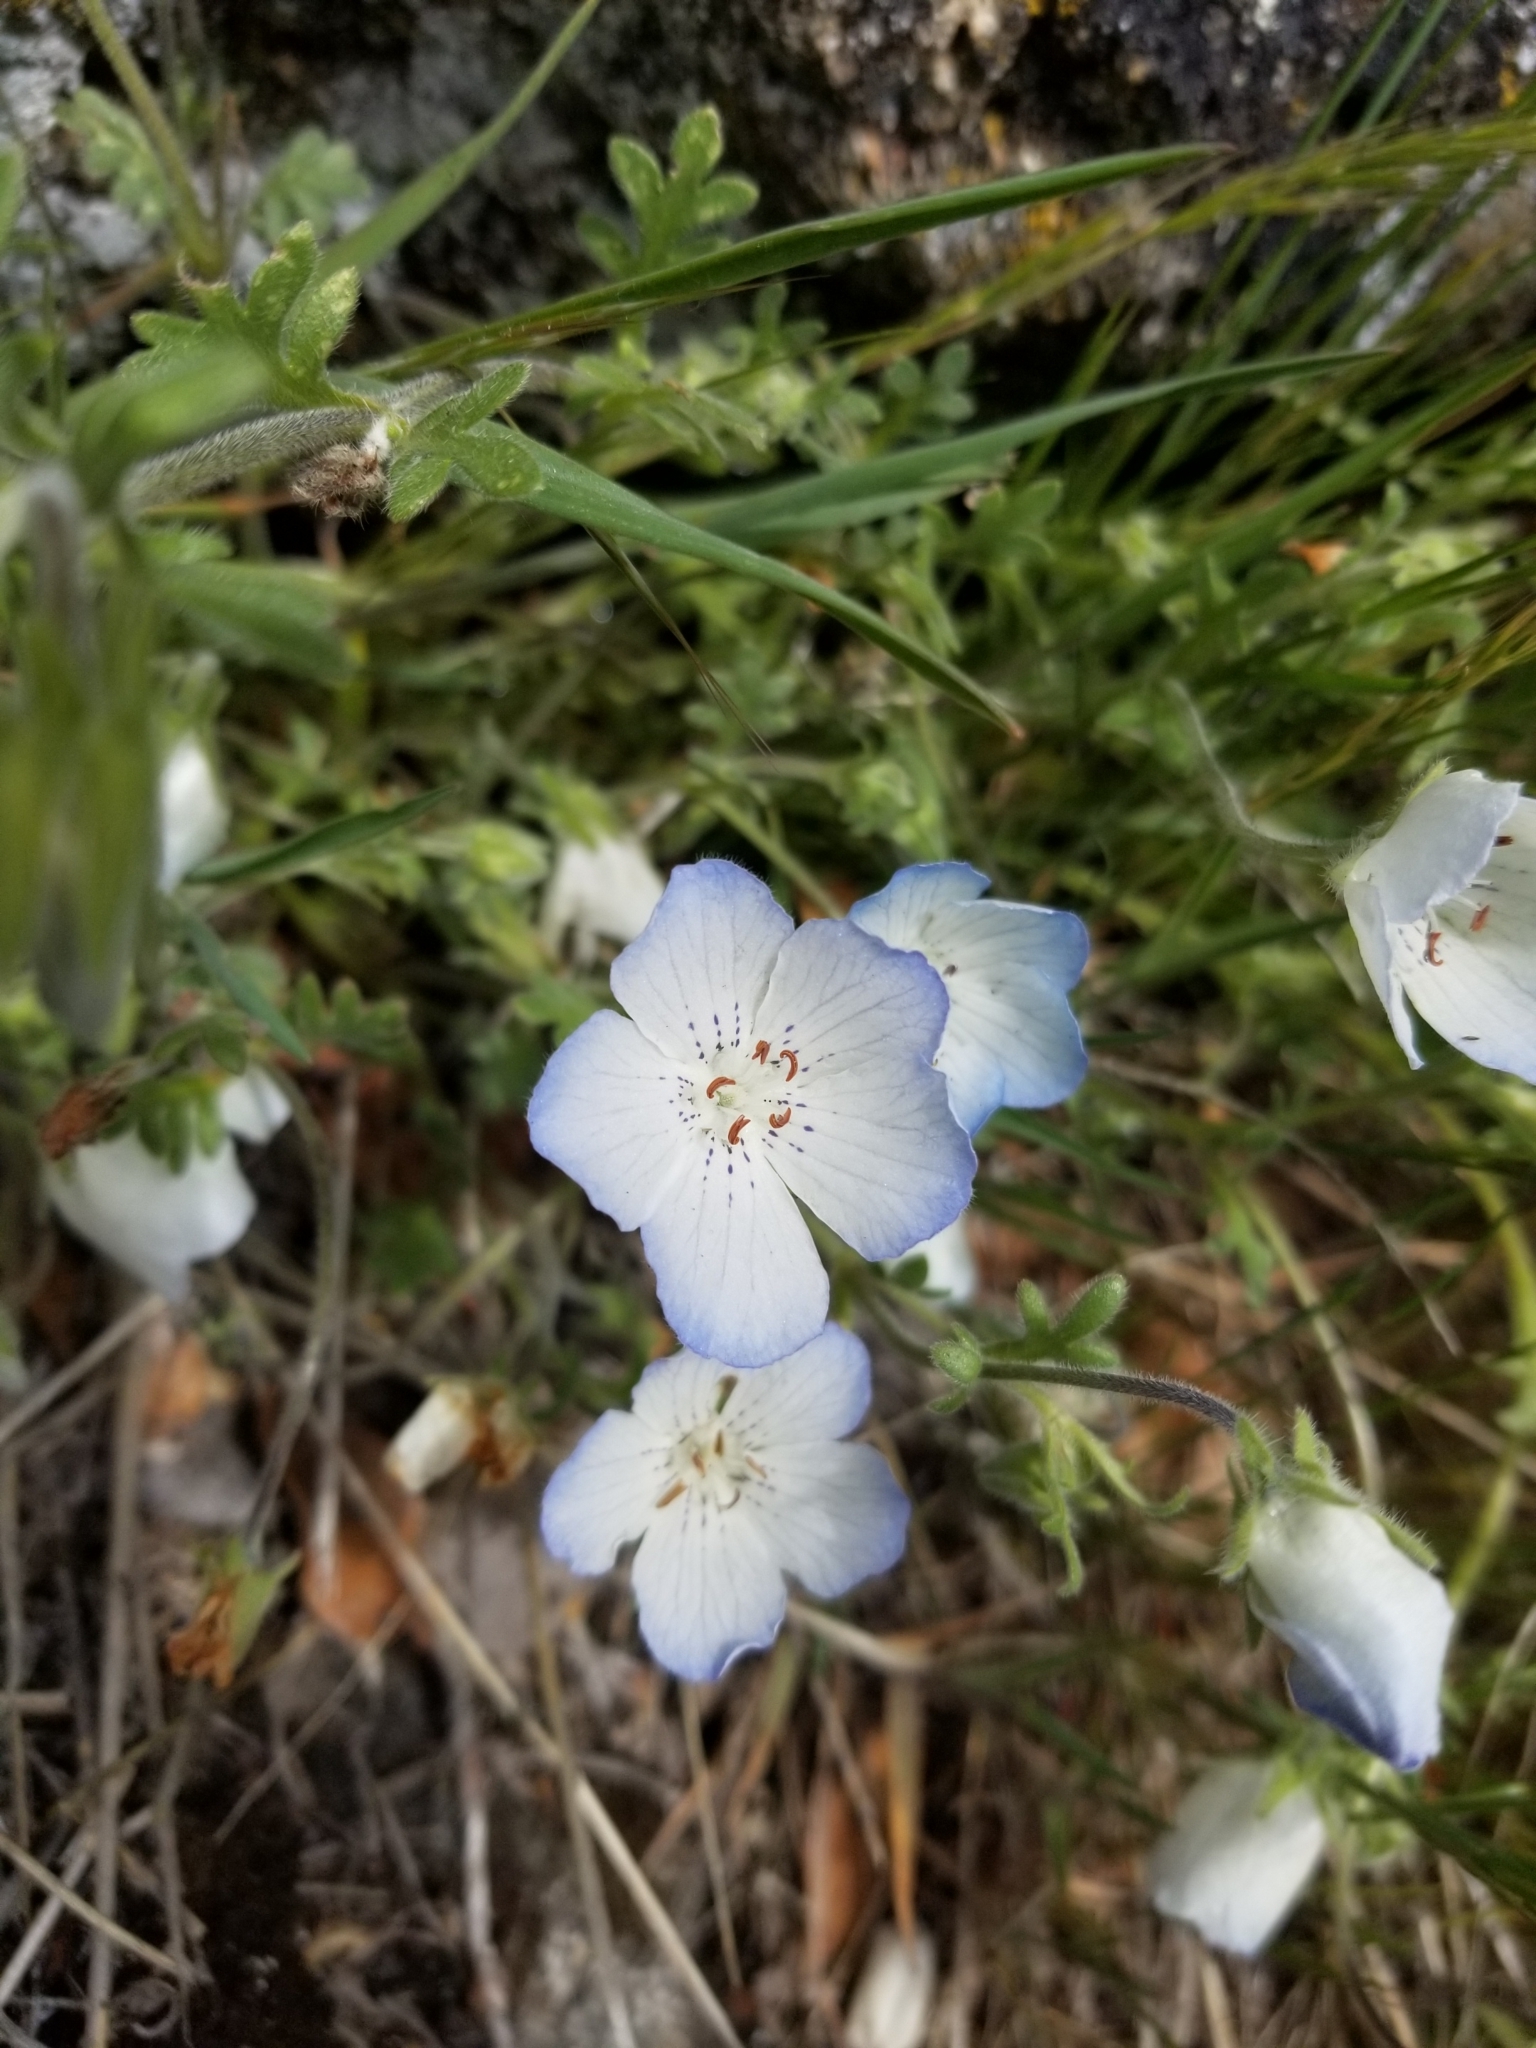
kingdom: Plantae
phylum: Tracheophyta
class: Magnoliopsida
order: Boraginales
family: Hydrophyllaceae
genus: Nemophila
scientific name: Nemophila menziesii
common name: Baby's-blue-eyes
